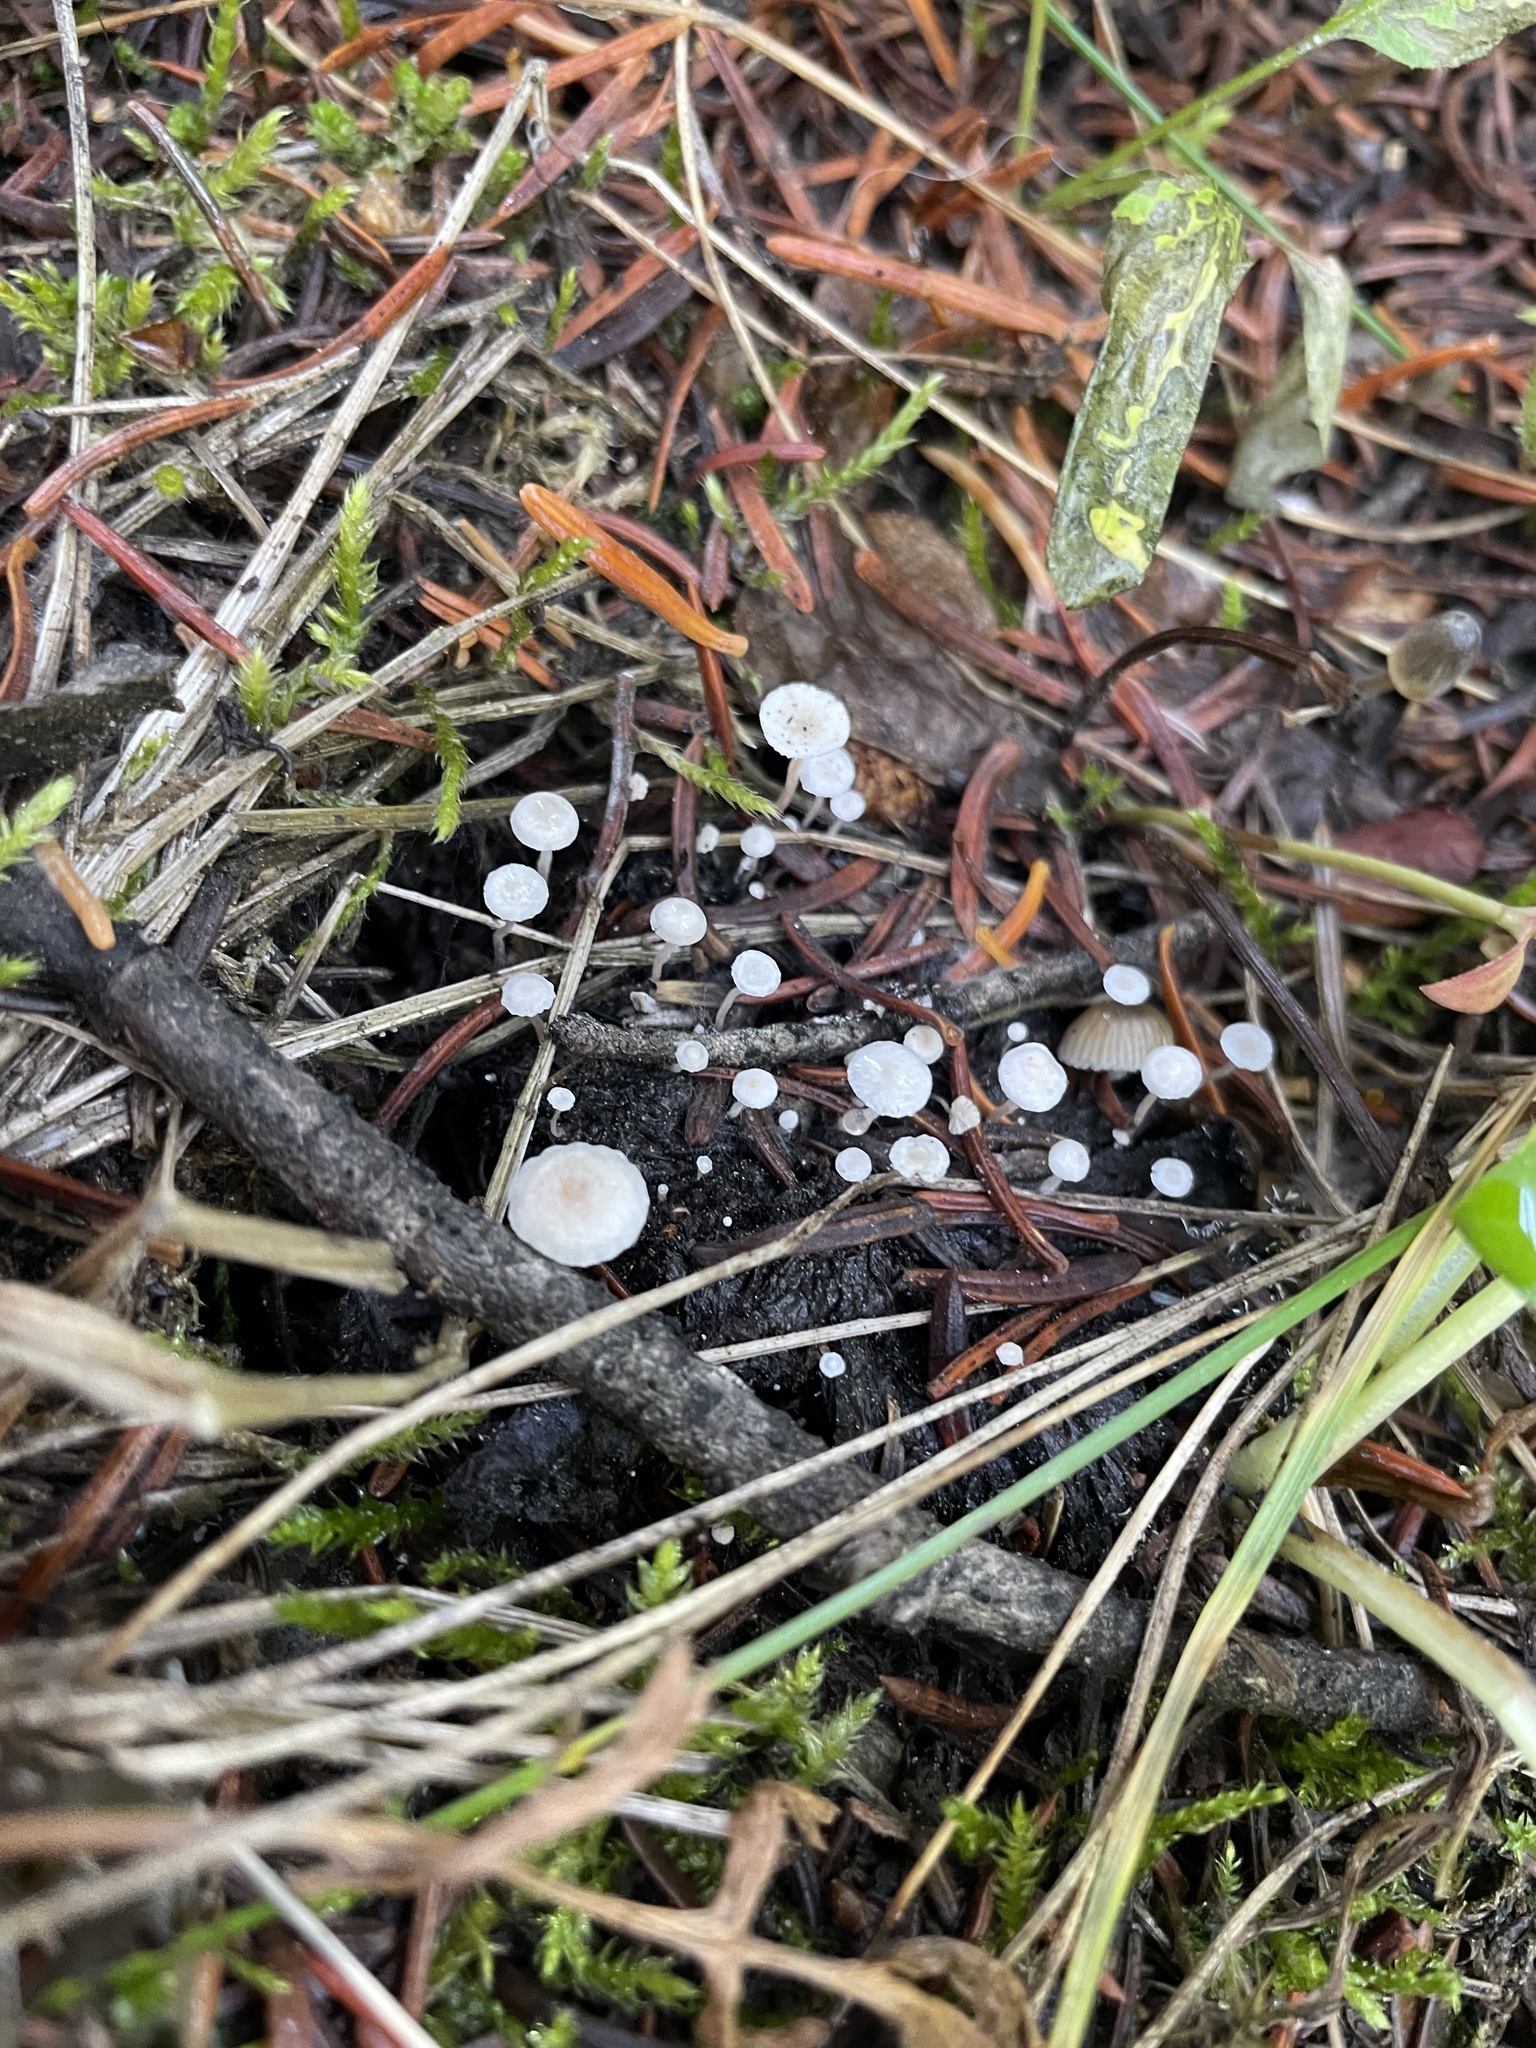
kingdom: Fungi
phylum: Basidiomycota
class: Agaricomycetes
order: Agaricales
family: Tricholomataceae
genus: Collybia
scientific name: Collybia cirrhata
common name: Piggyback shanklet
